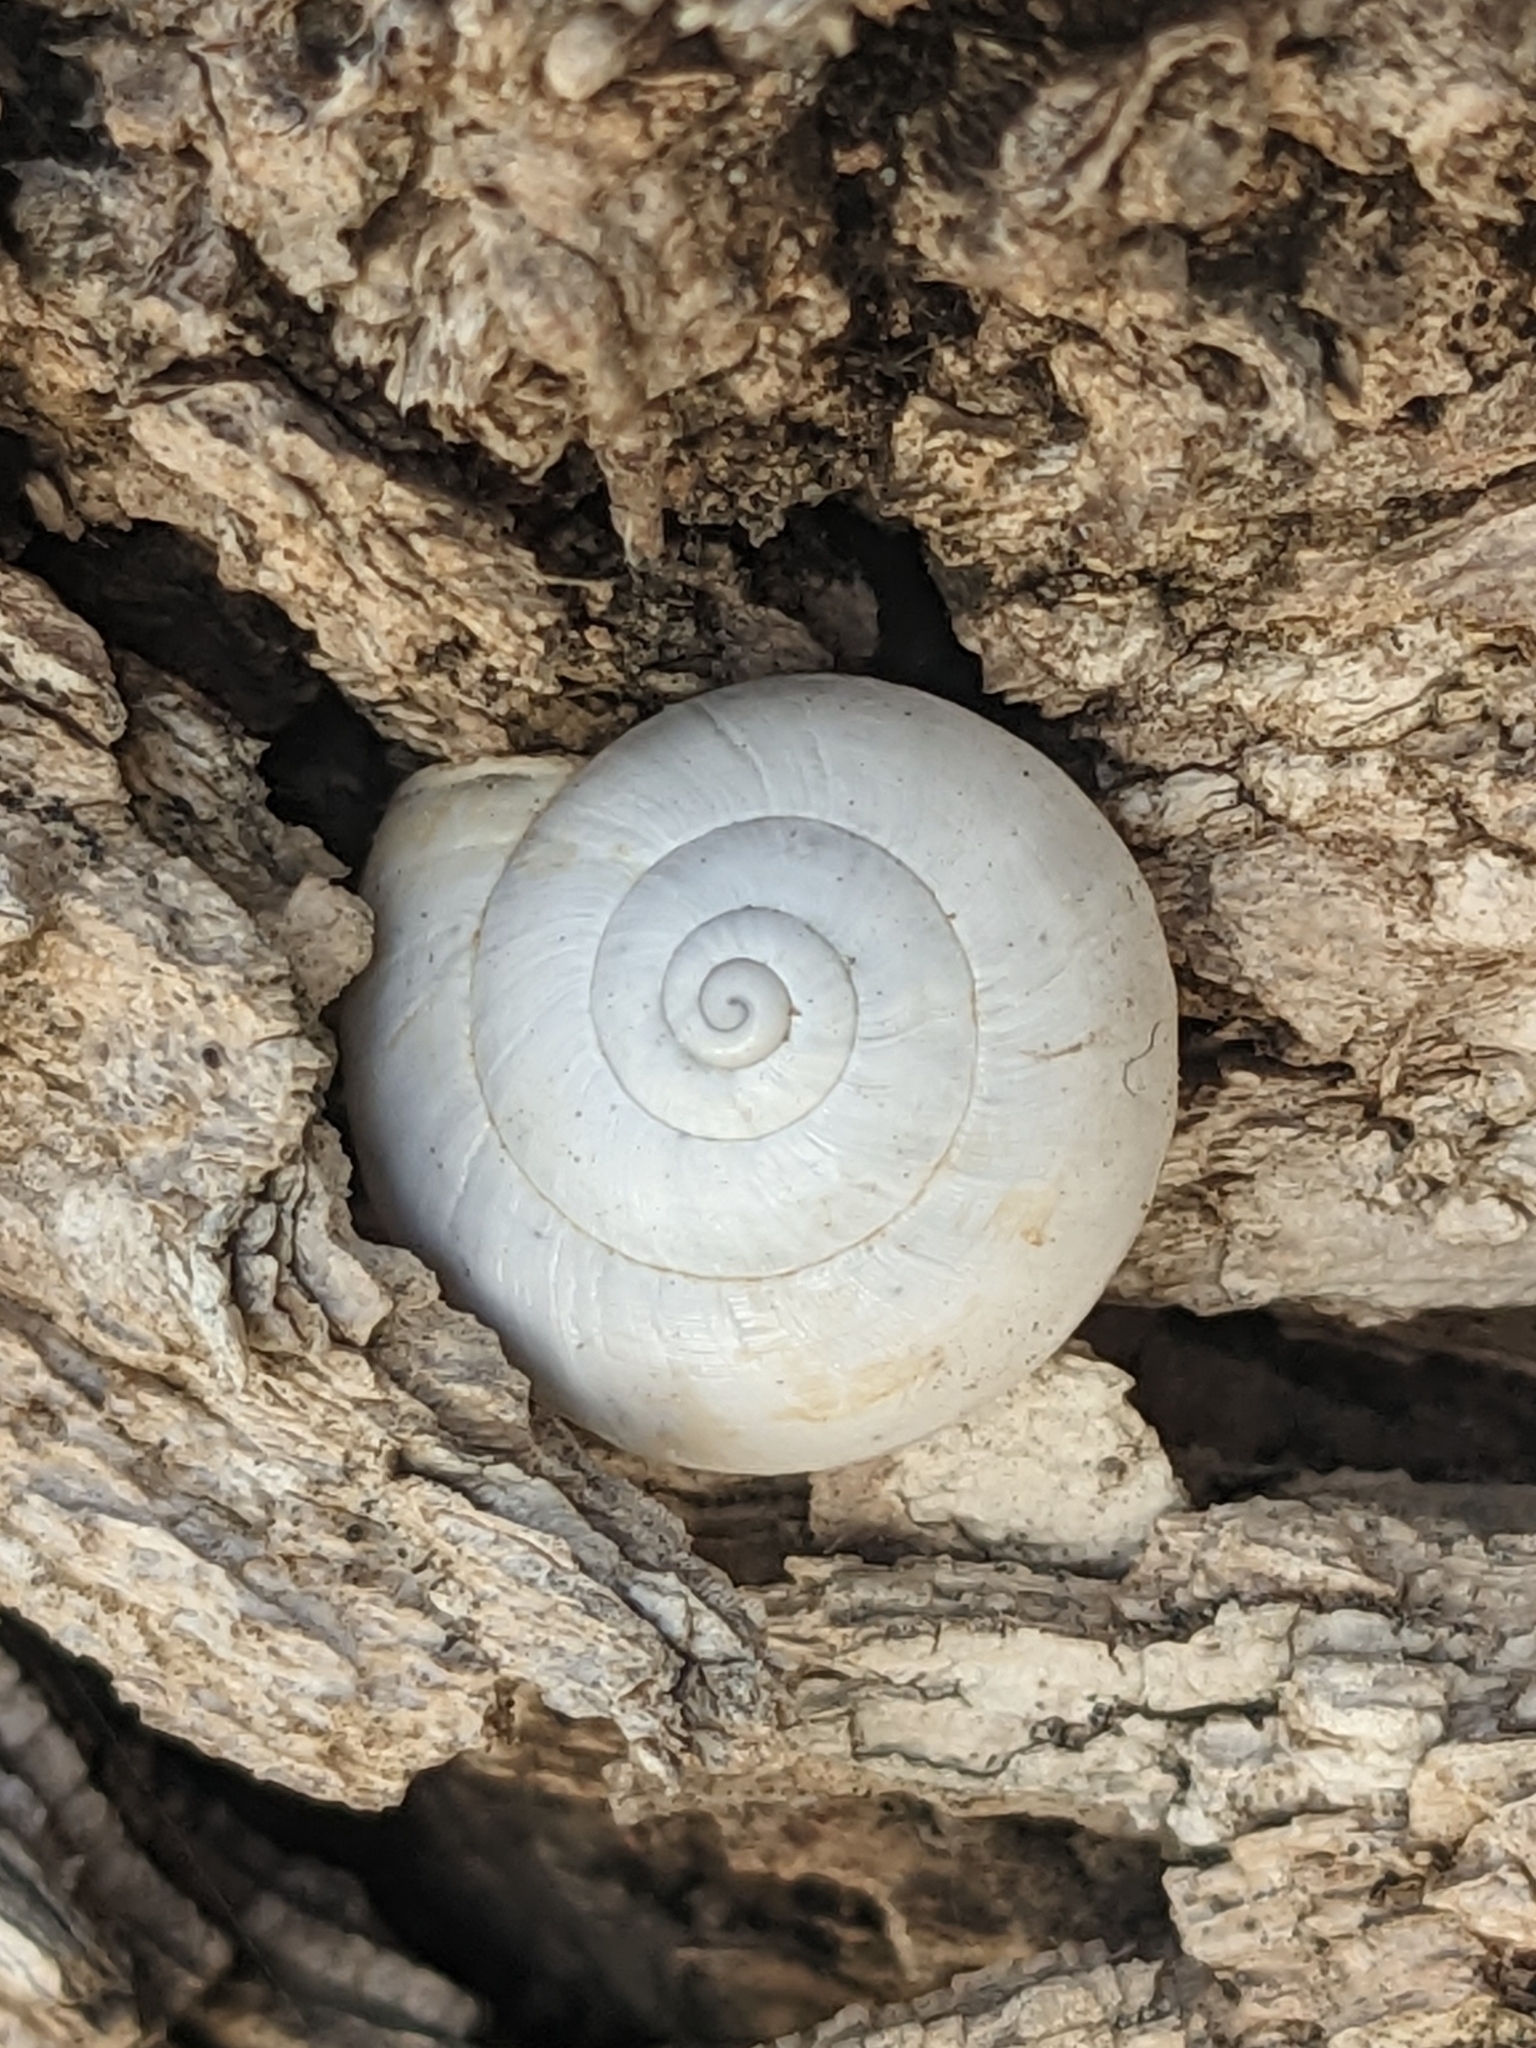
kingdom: Animalia
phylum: Mollusca
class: Gastropoda
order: Stylommatophora
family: Helicidae
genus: Eobania
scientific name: Eobania vermiculata
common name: Chocolateband snail
